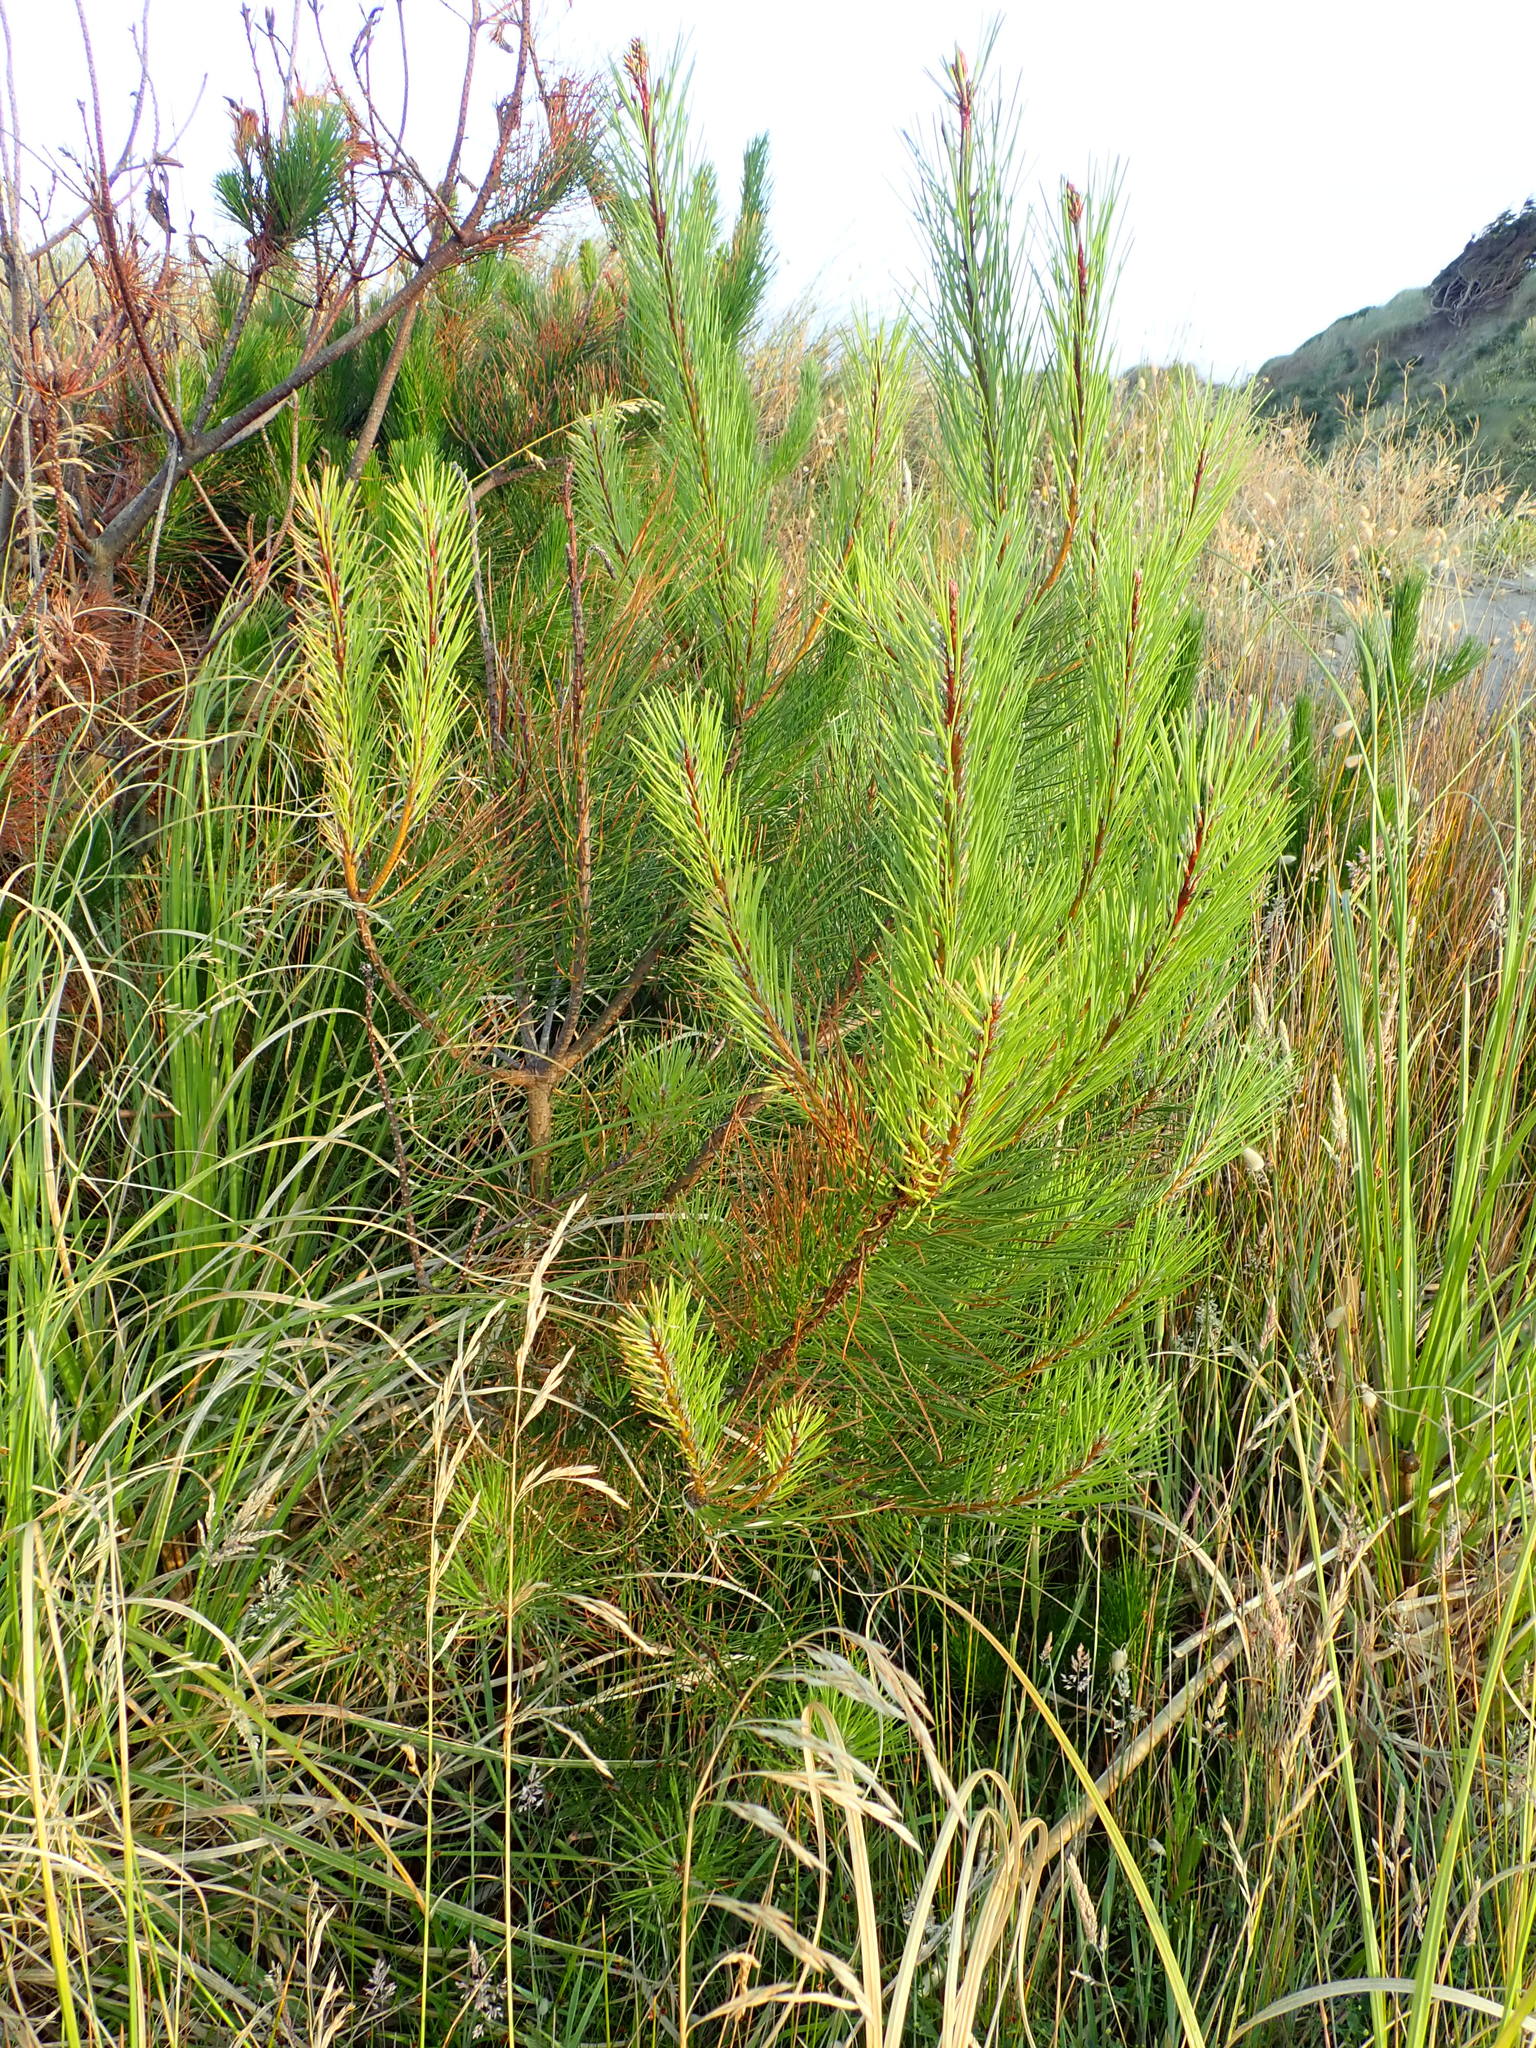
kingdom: Plantae
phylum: Tracheophyta
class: Pinopsida
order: Pinales
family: Pinaceae
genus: Pinus
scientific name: Pinus pinaster
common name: Maritime pine
